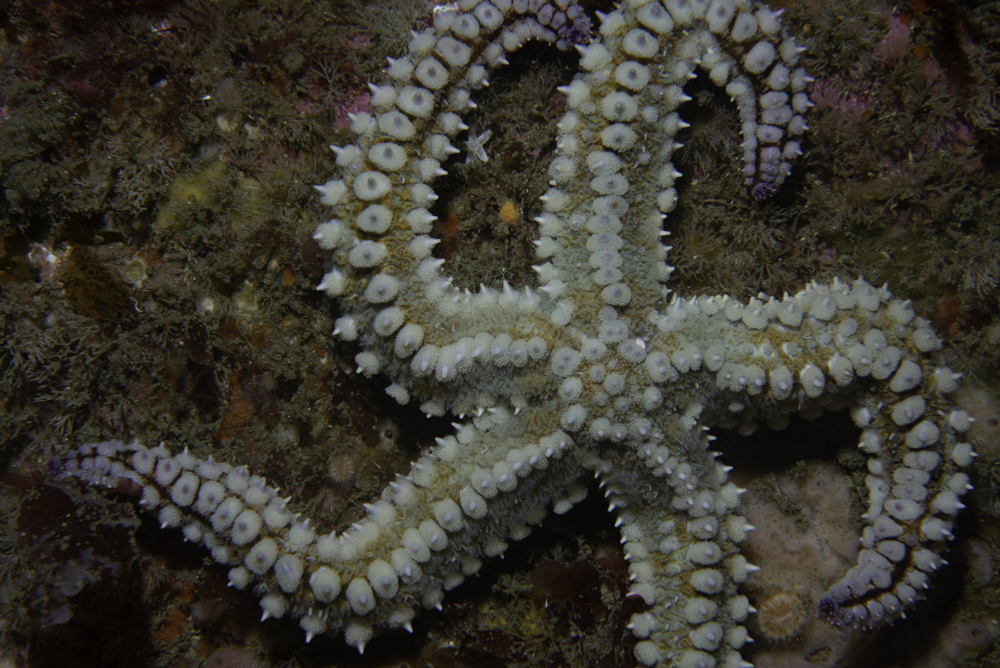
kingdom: Animalia
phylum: Echinodermata
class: Asteroidea
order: Forcipulatida
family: Asteriidae
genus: Marthasterias
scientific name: Marthasterias glacialis
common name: Spiny starfish
